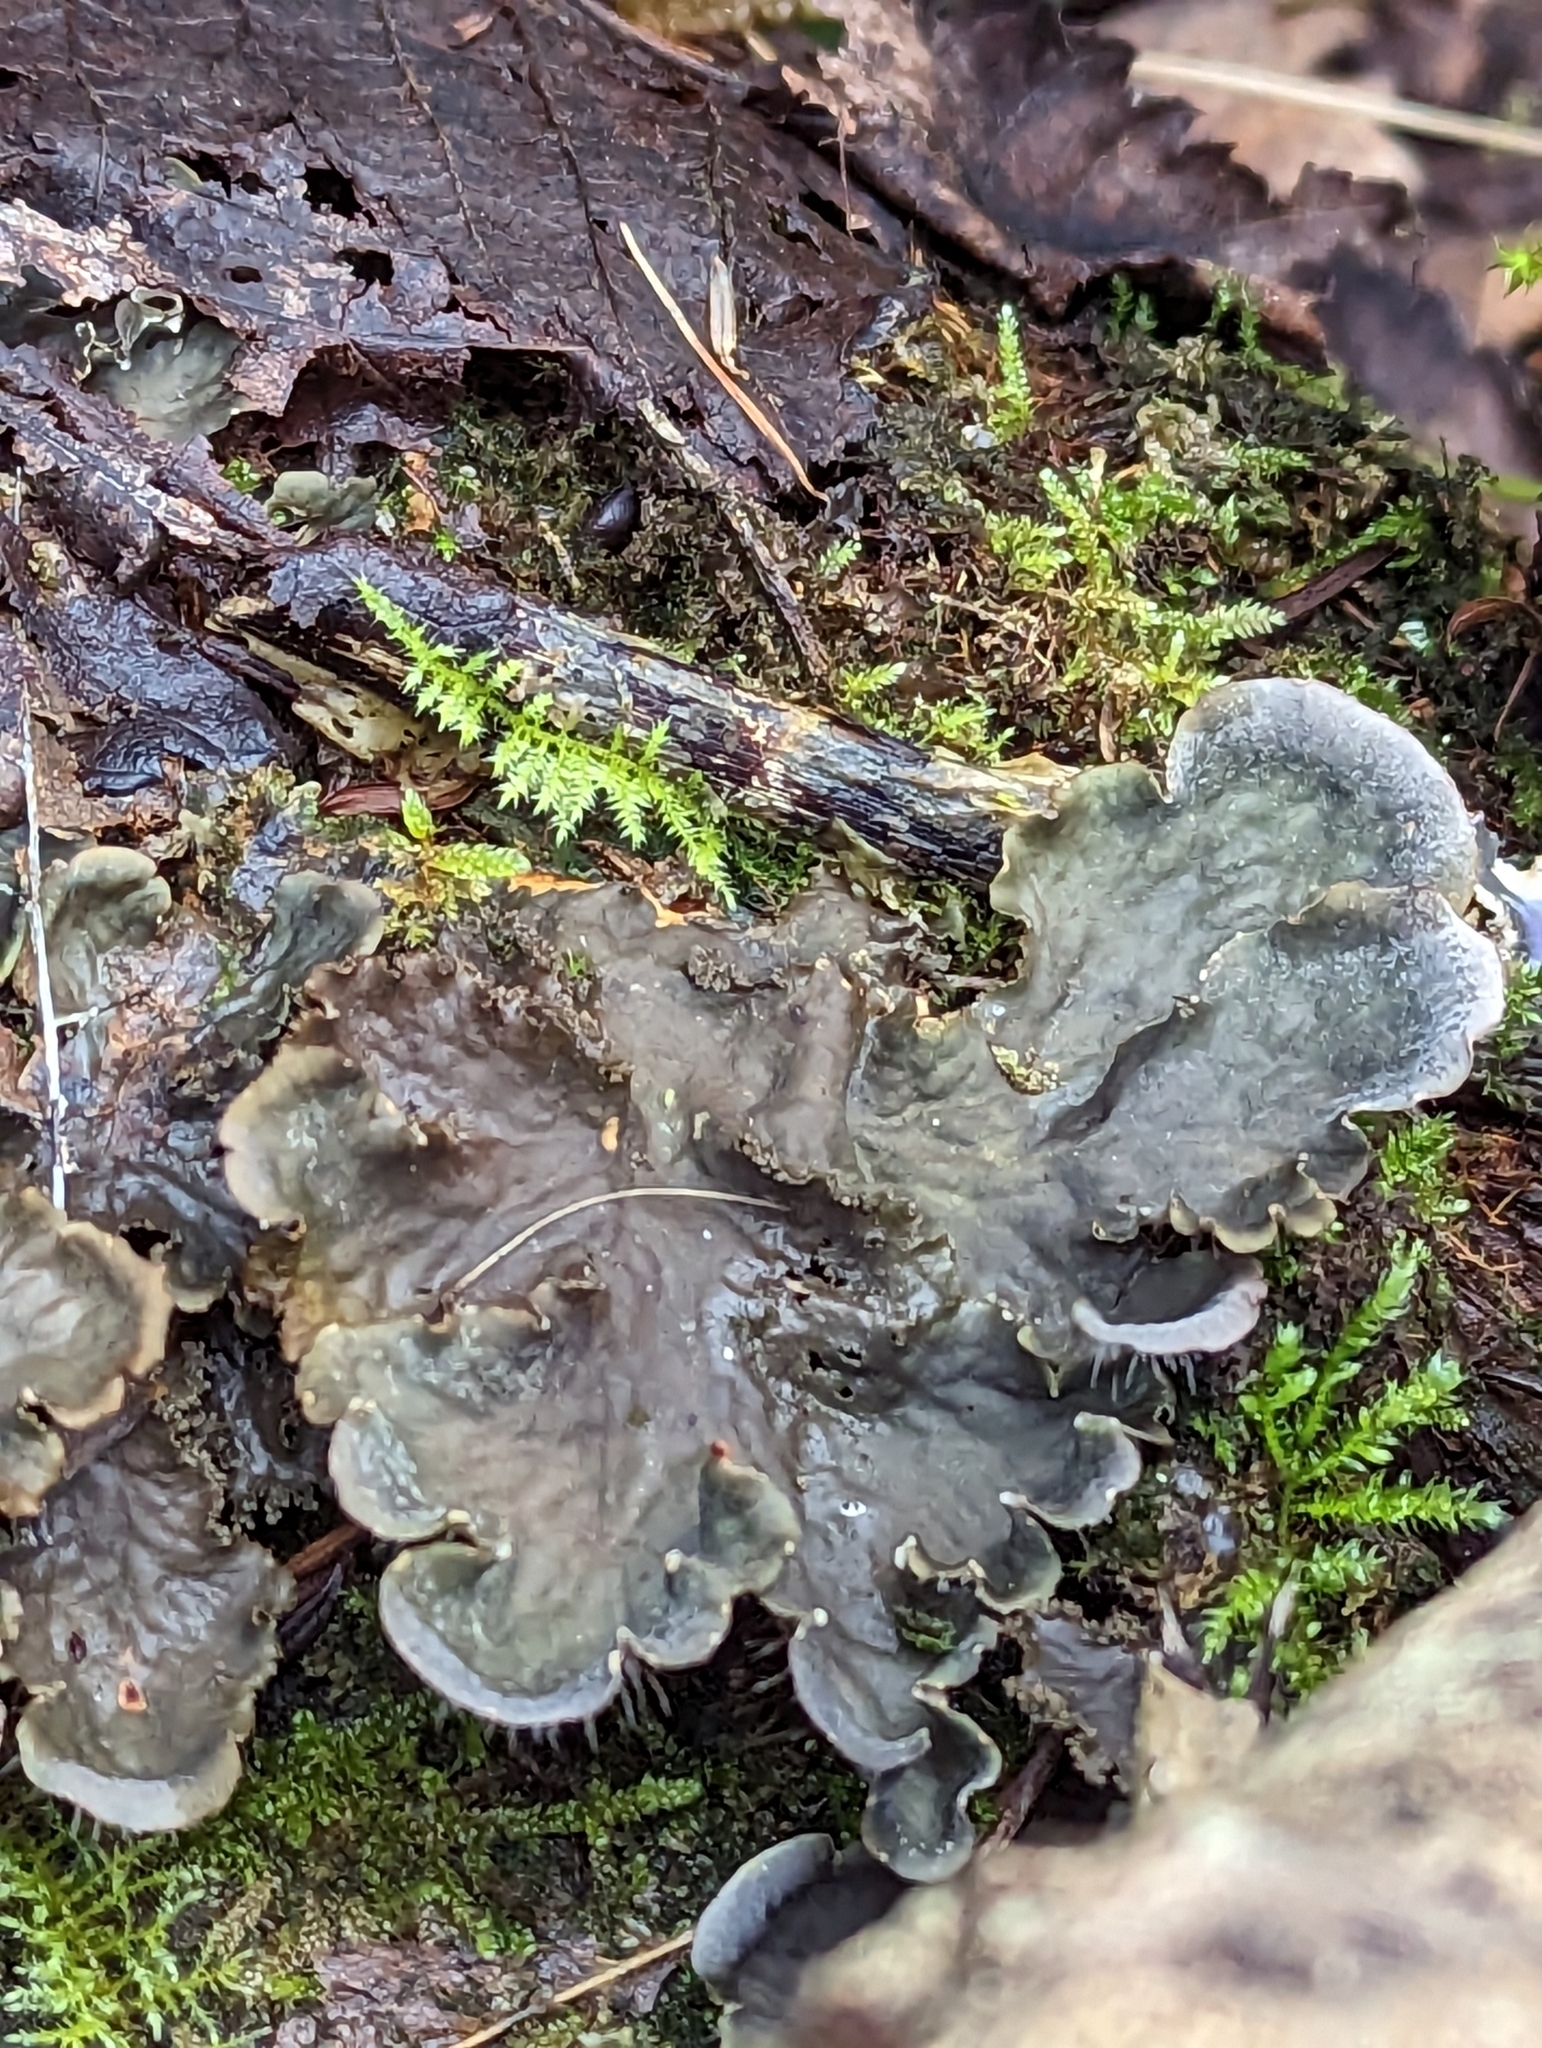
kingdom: Fungi
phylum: Ascomycota
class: Lecanoromycetes
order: Peltigerales
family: Peltigeraceae
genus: Peltigera
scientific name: Peltigera praetextata
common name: Scaly dog-lichen
